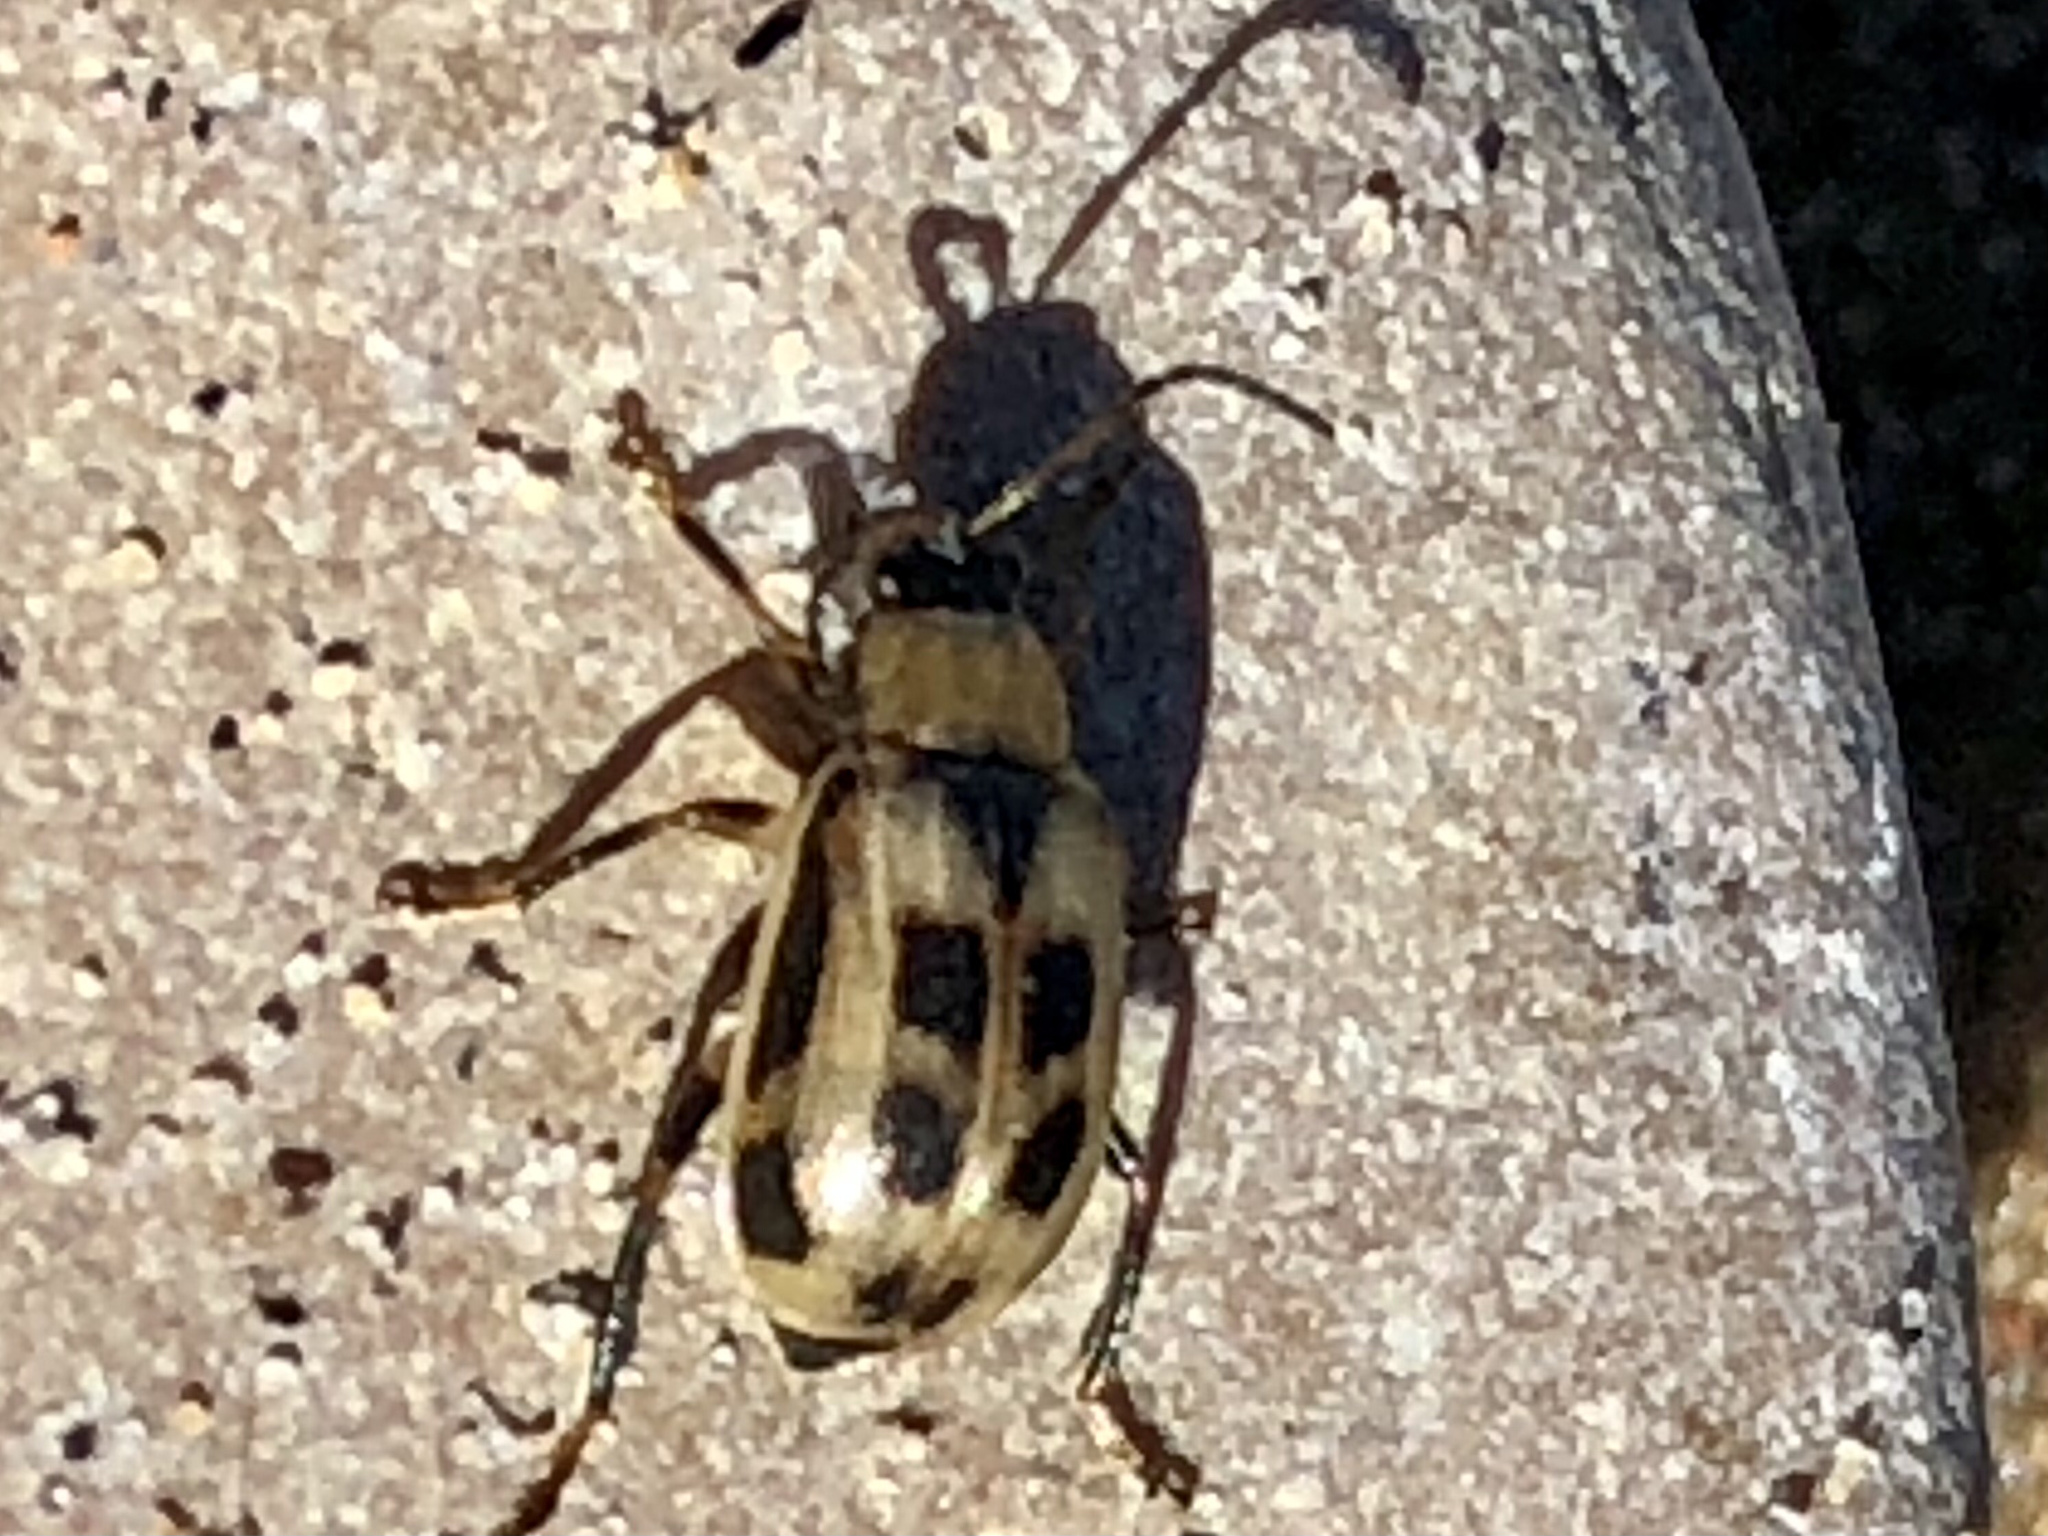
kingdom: Animalia
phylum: Arthropoda
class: Insecta
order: Coleoptera
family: Chrysomelidae
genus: Cerotoma
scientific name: Cerotoma trifurcata
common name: Bean leaf beetle
